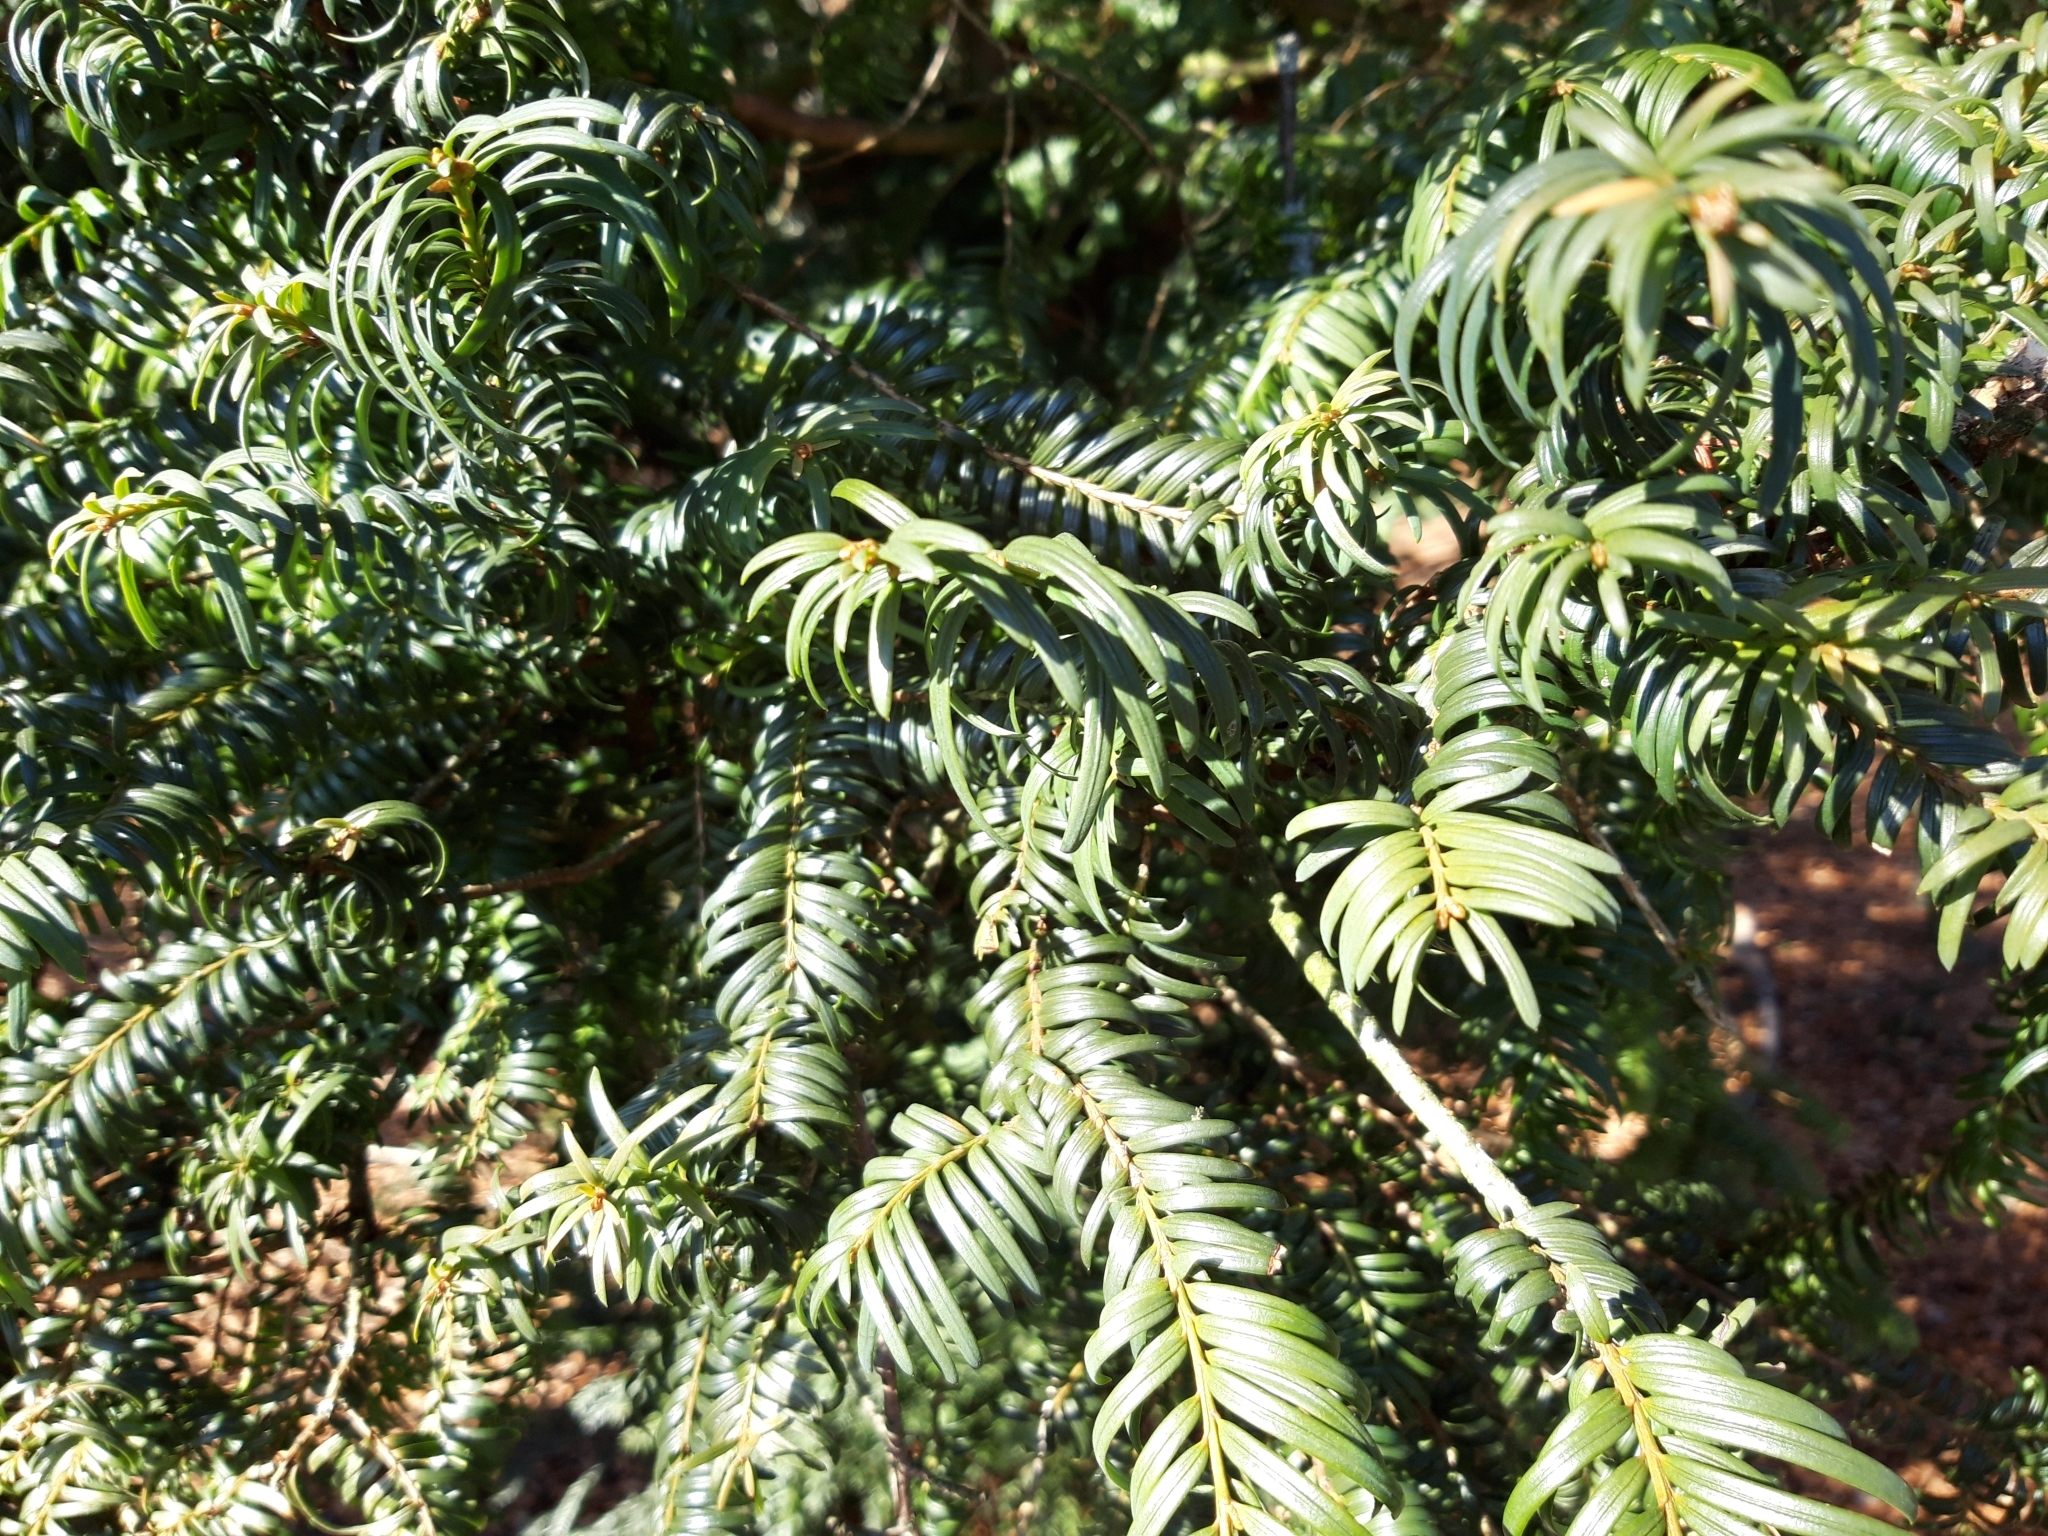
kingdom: Plantae
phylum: Tracheophyta
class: Pinopsida
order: Pinales
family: Taxaceae
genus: Taxus
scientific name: Taxus baccata
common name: Yew
